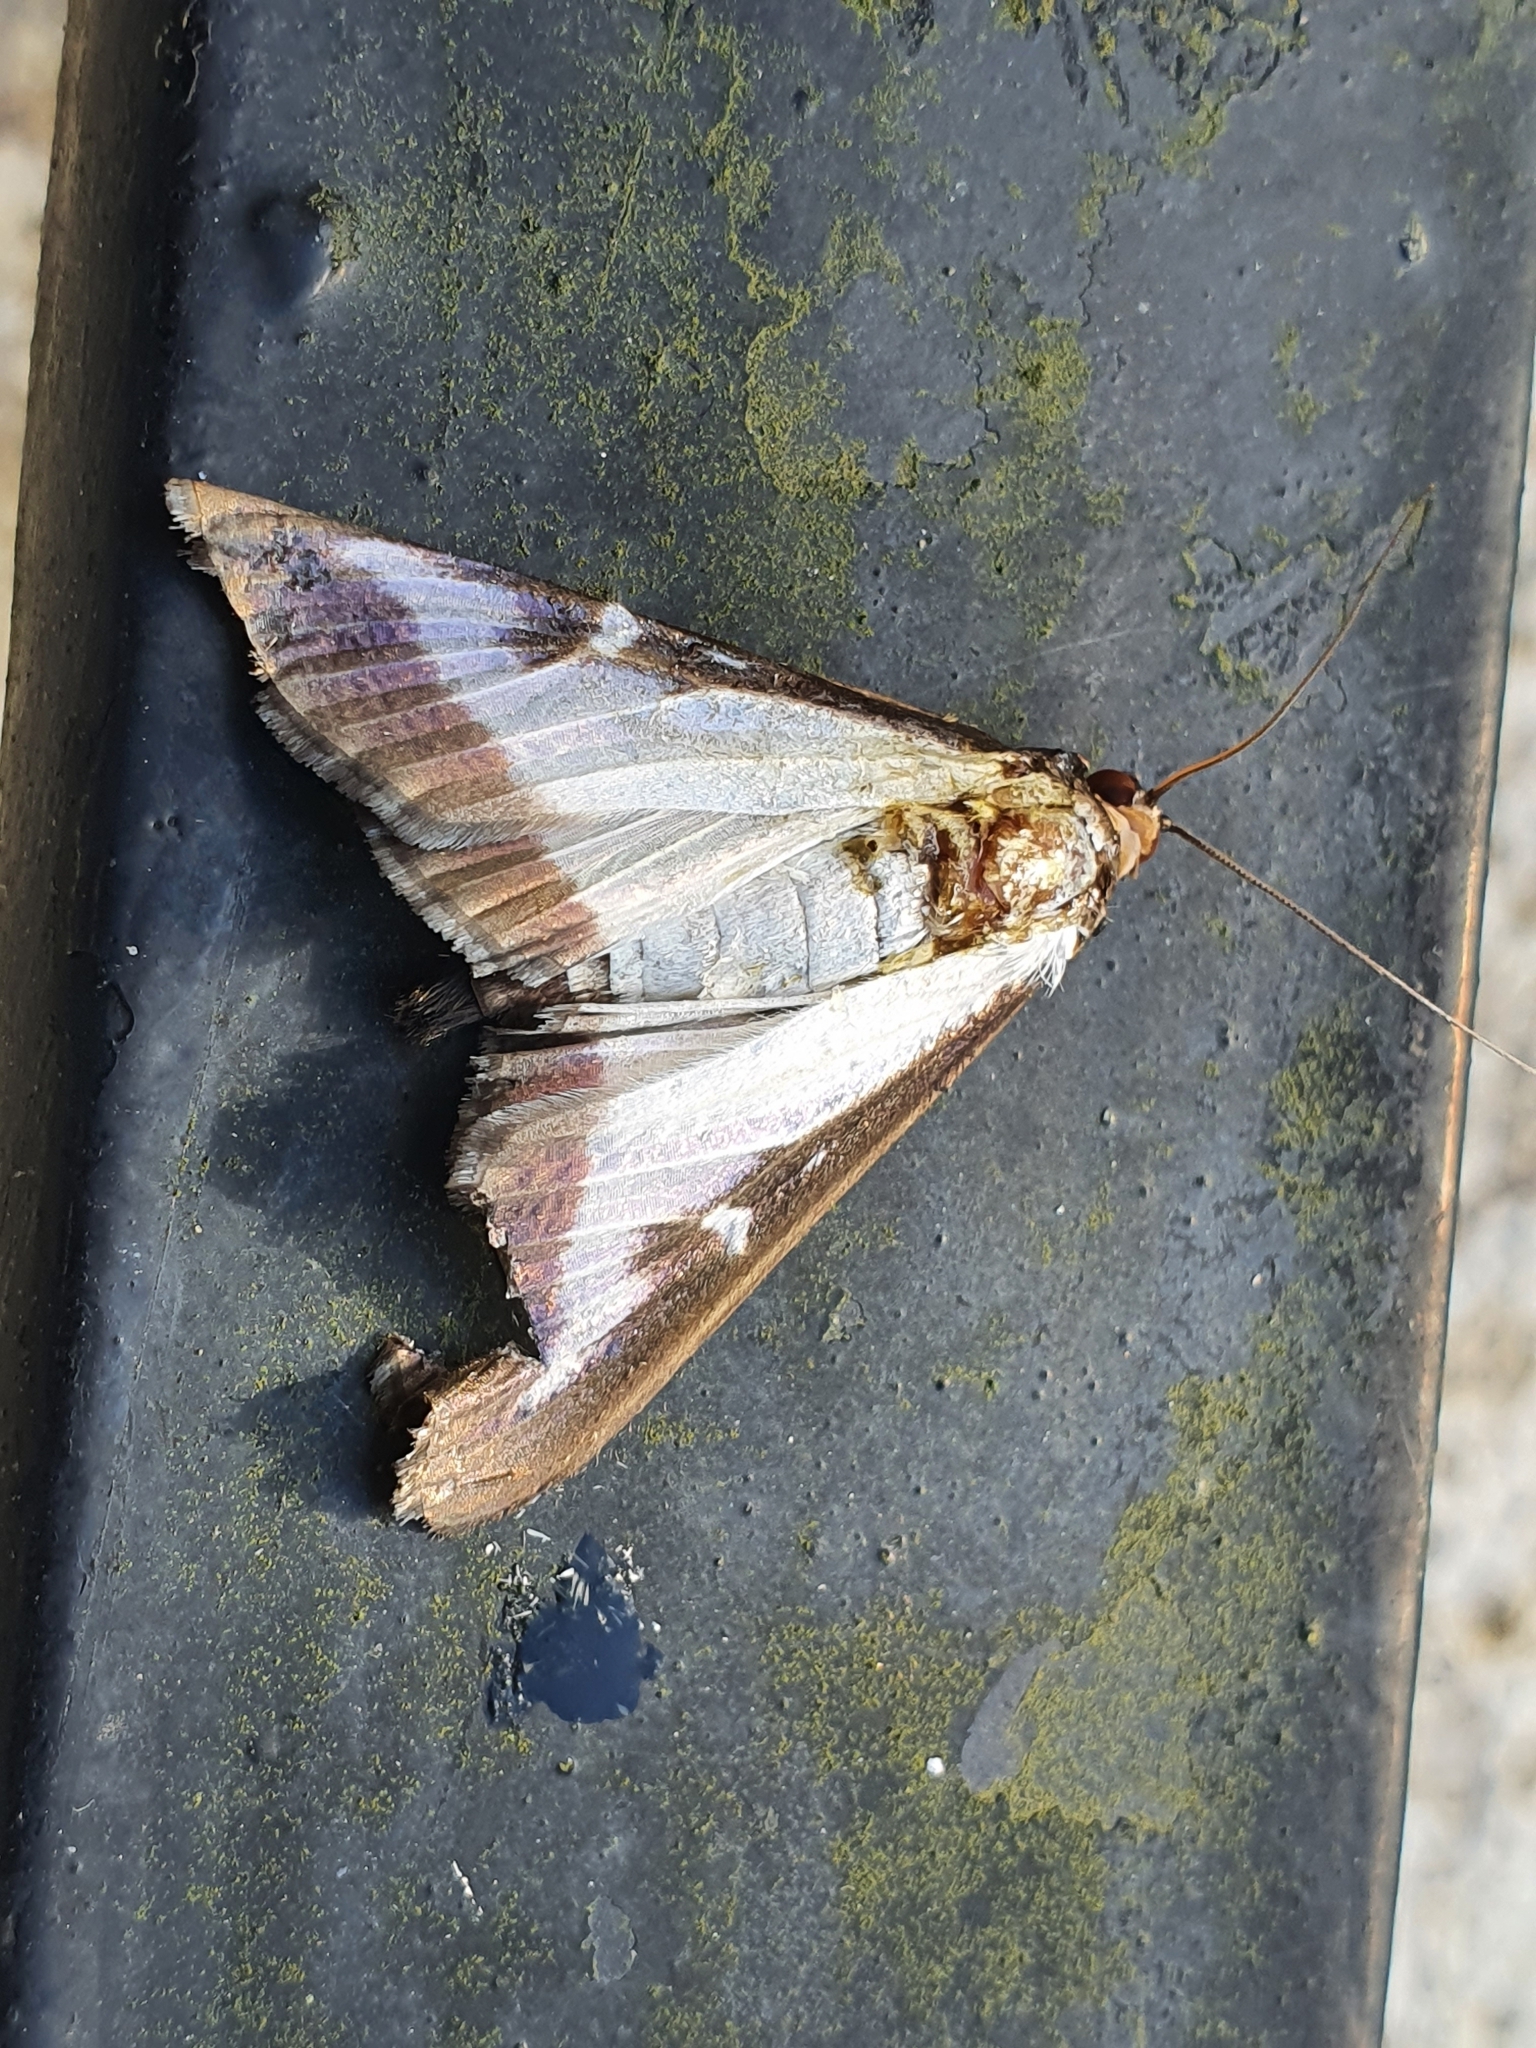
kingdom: Animalia
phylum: Arthropoda
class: Insecta
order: Lepidoptera
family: Crambidae
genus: Cydalima
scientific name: Cydalima perspectalis
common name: Box tree moth
